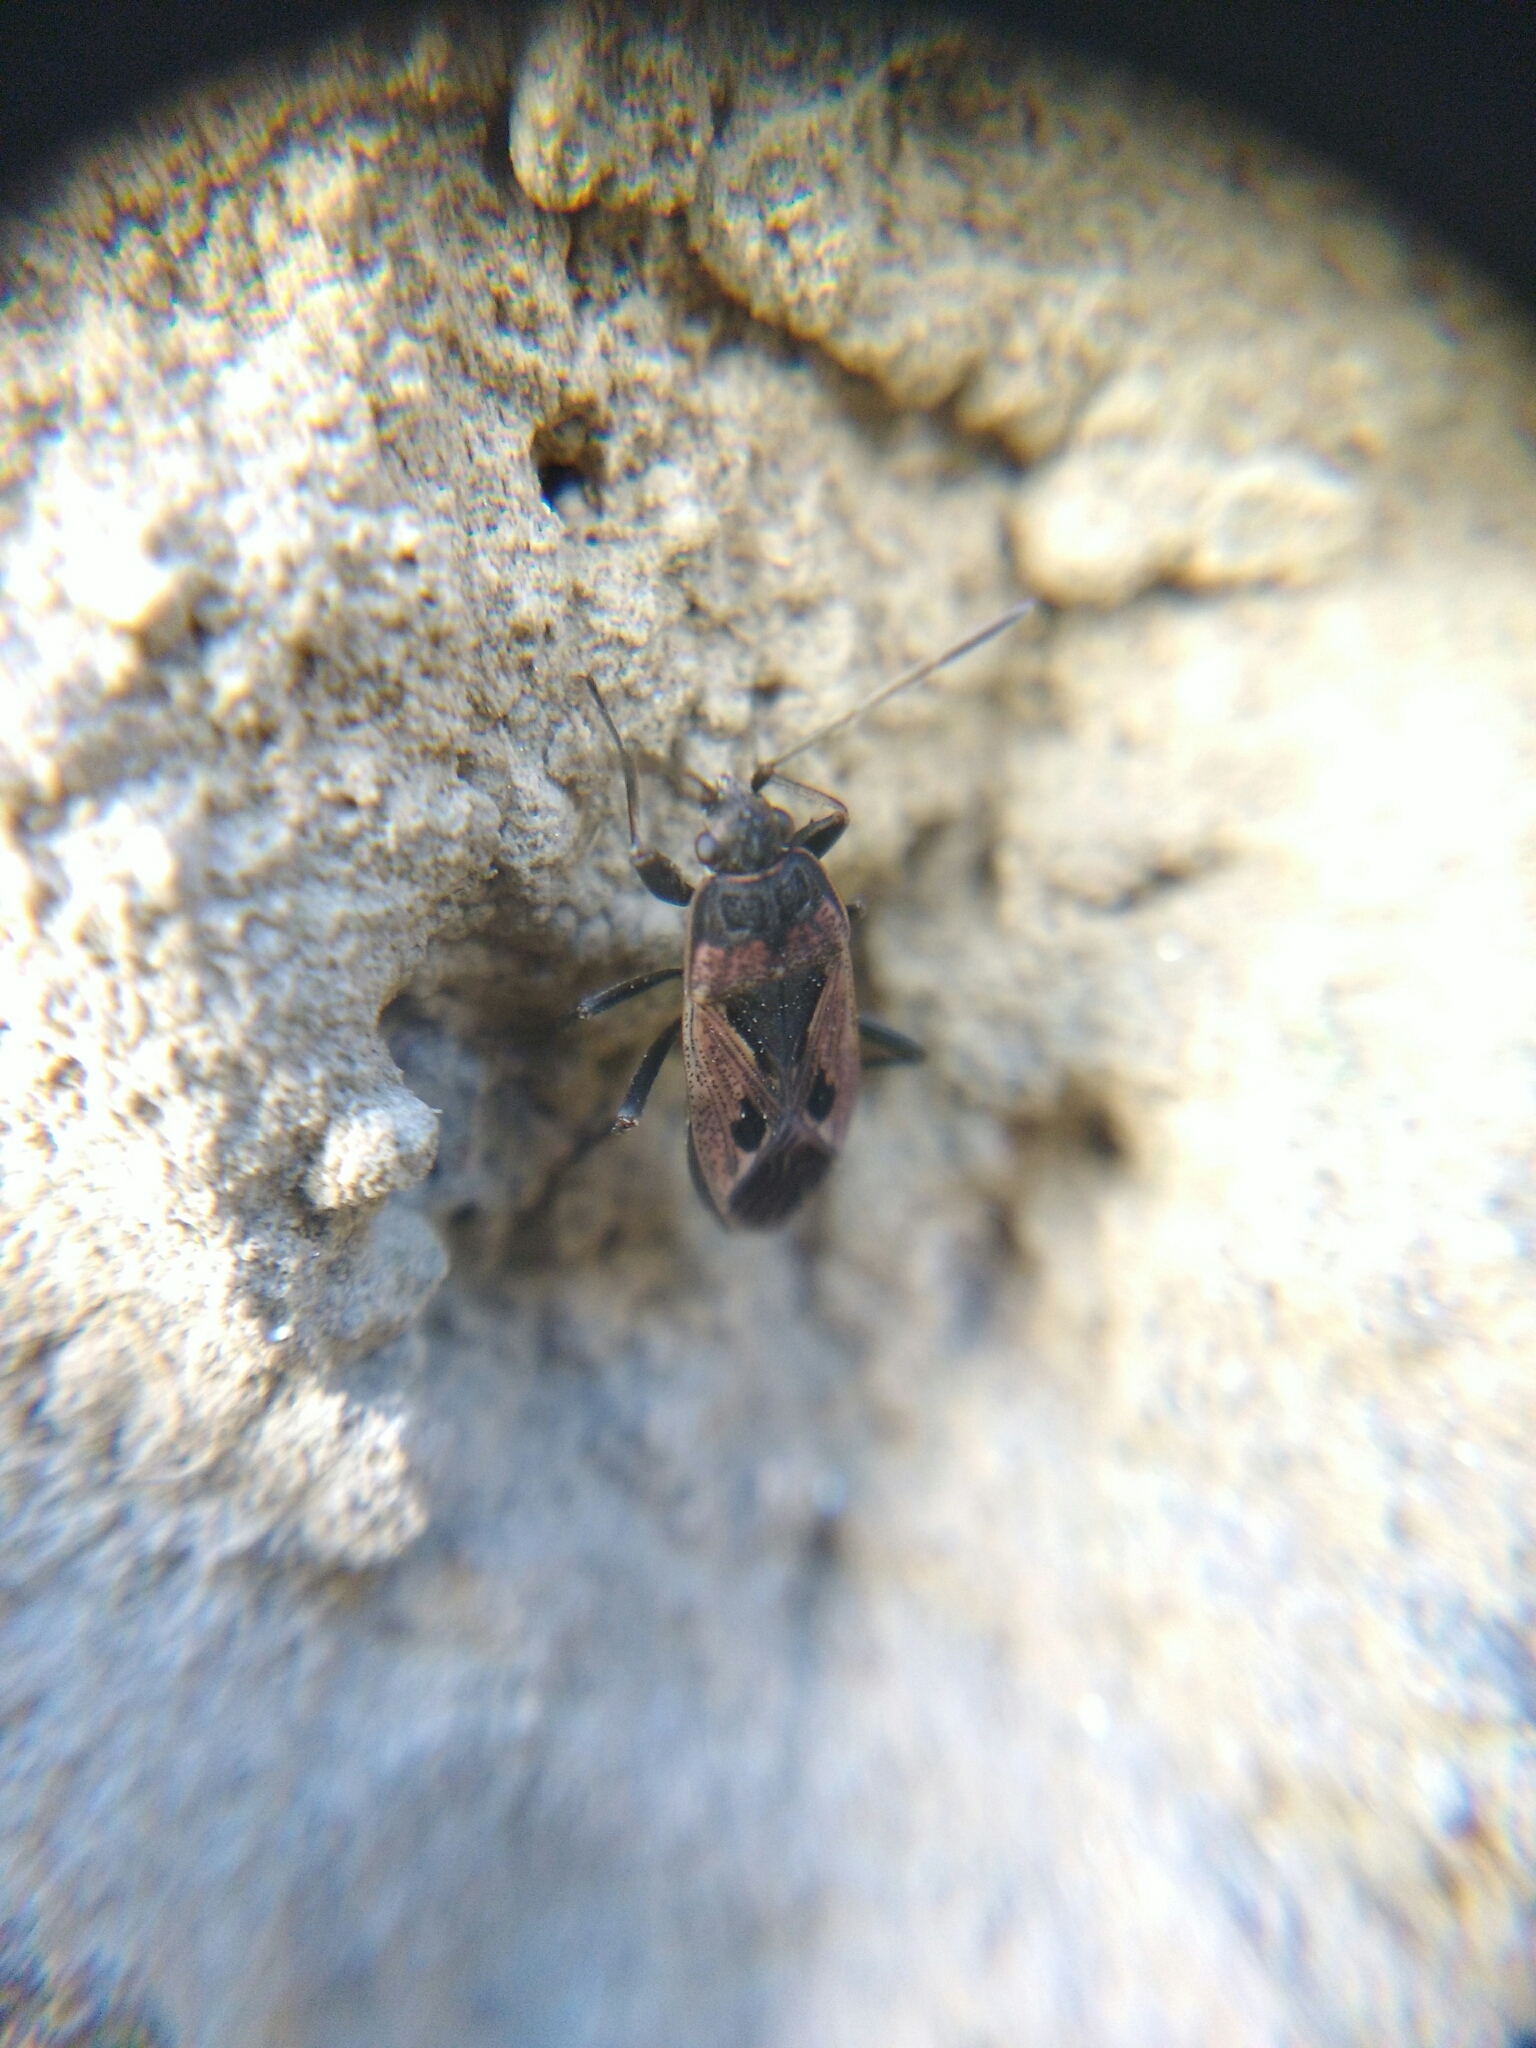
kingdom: Animalia
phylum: Arthropoda
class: Insecta
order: Hemiptera
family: Rhyparochromidae
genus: Rhyparochromus
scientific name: Rhyparochromus pini
